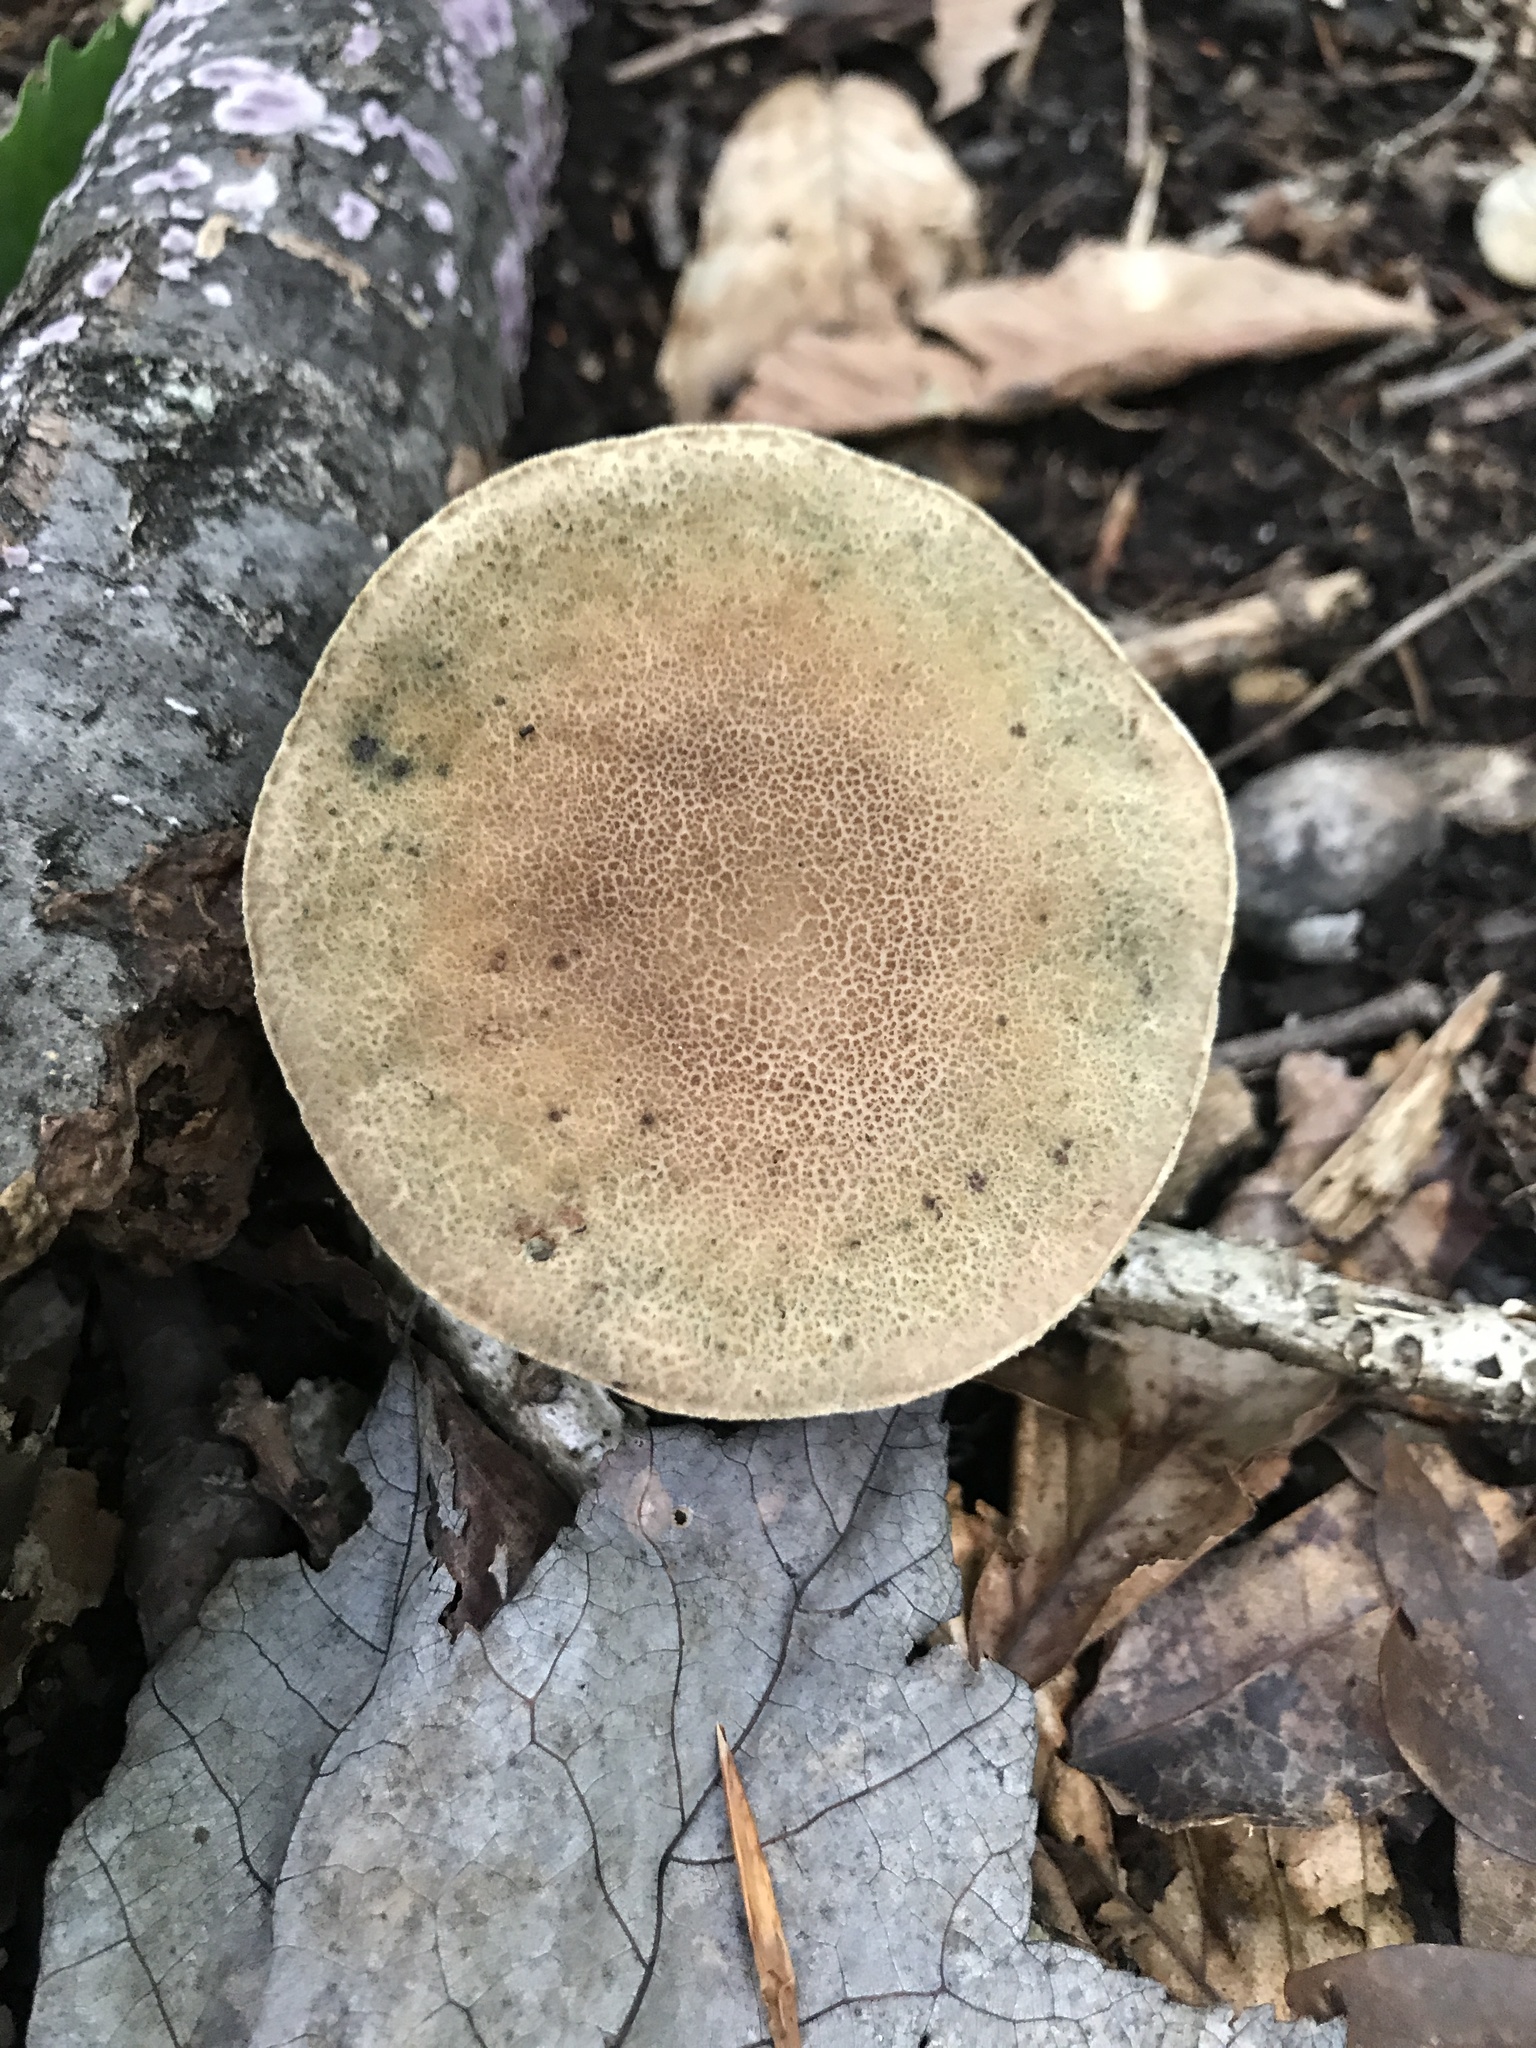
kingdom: Fungi
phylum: Basidiomycota
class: Agaricomycetes
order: Boletales
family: Boletaceae
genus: Porphyrellus
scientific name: Porphyrellus sordidus
